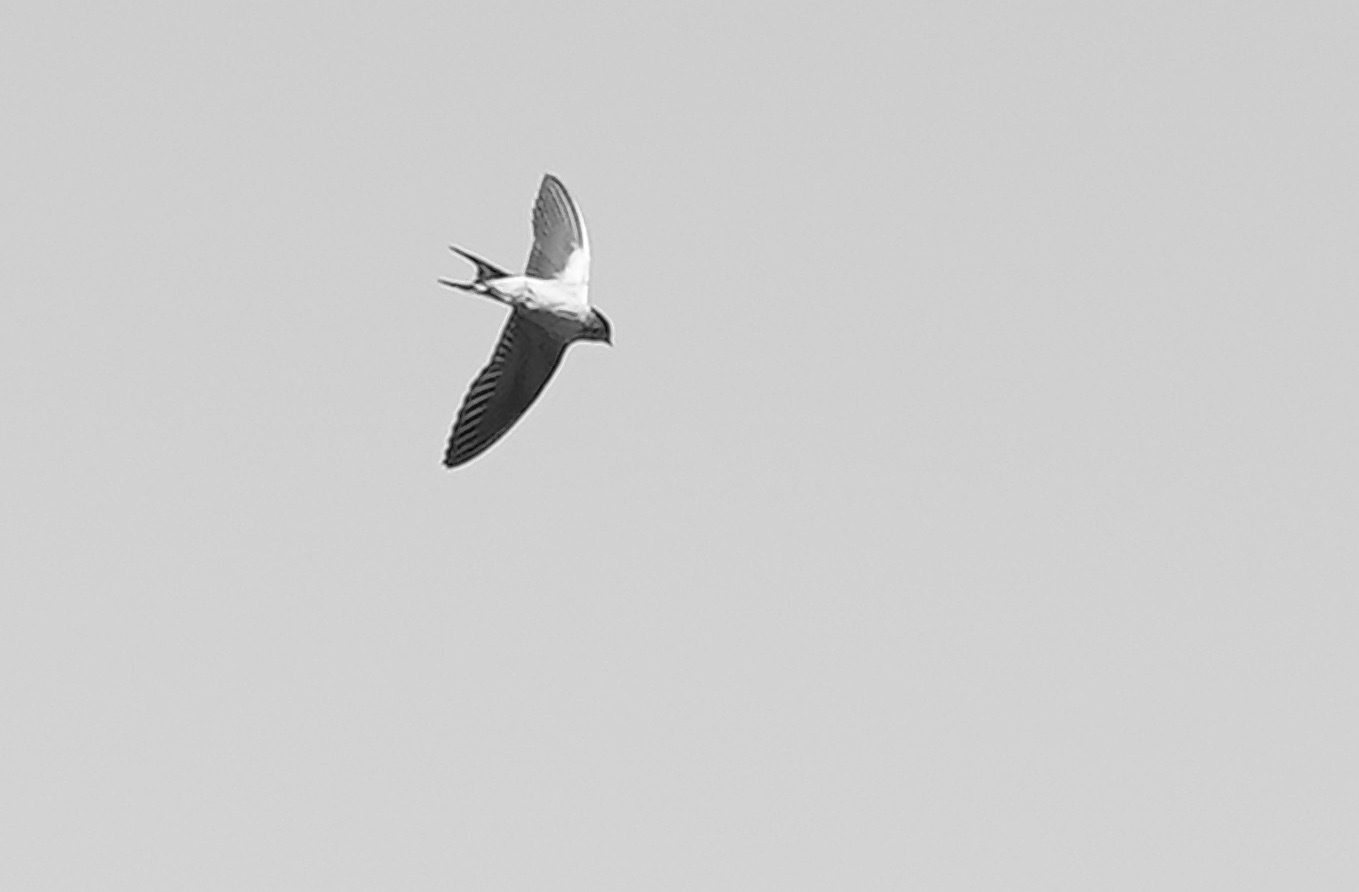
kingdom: Animalia
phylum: Chordata
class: Aves
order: Passeriformes
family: Hirundinidae
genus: Hirundo
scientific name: Hirundo rustica
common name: Barn swallow
